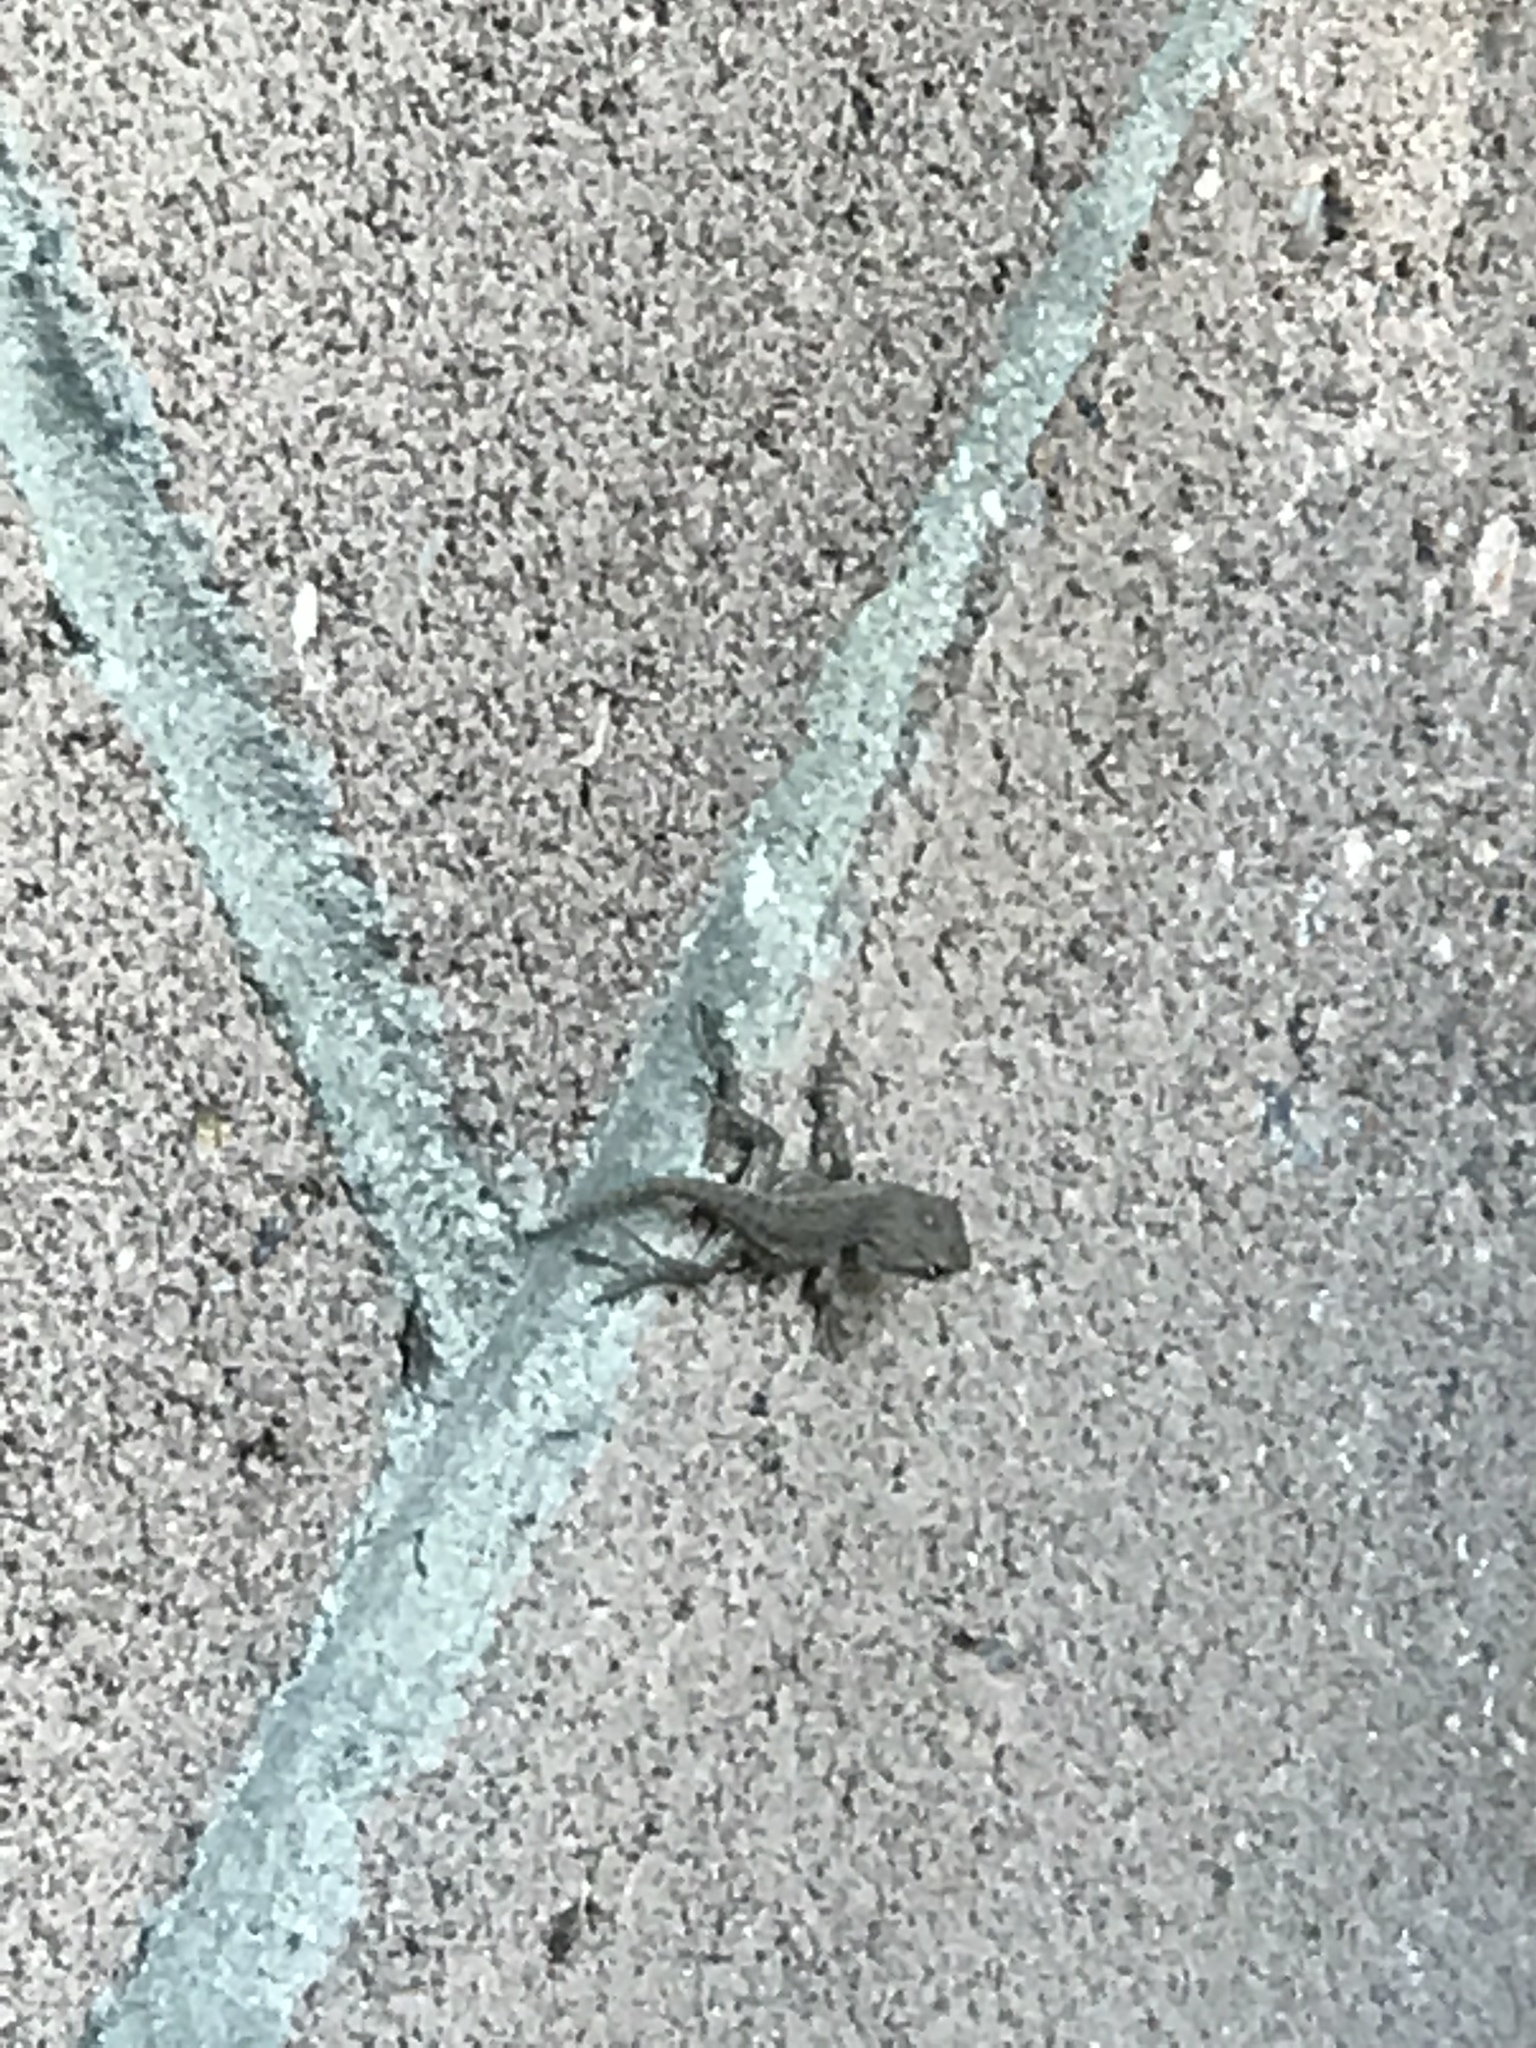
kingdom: Animalia
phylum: Chordata
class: Squamata
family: Phrynosomatidae
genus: Sceloporus
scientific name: Sceloporus occidentalis
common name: Western fence lizard
